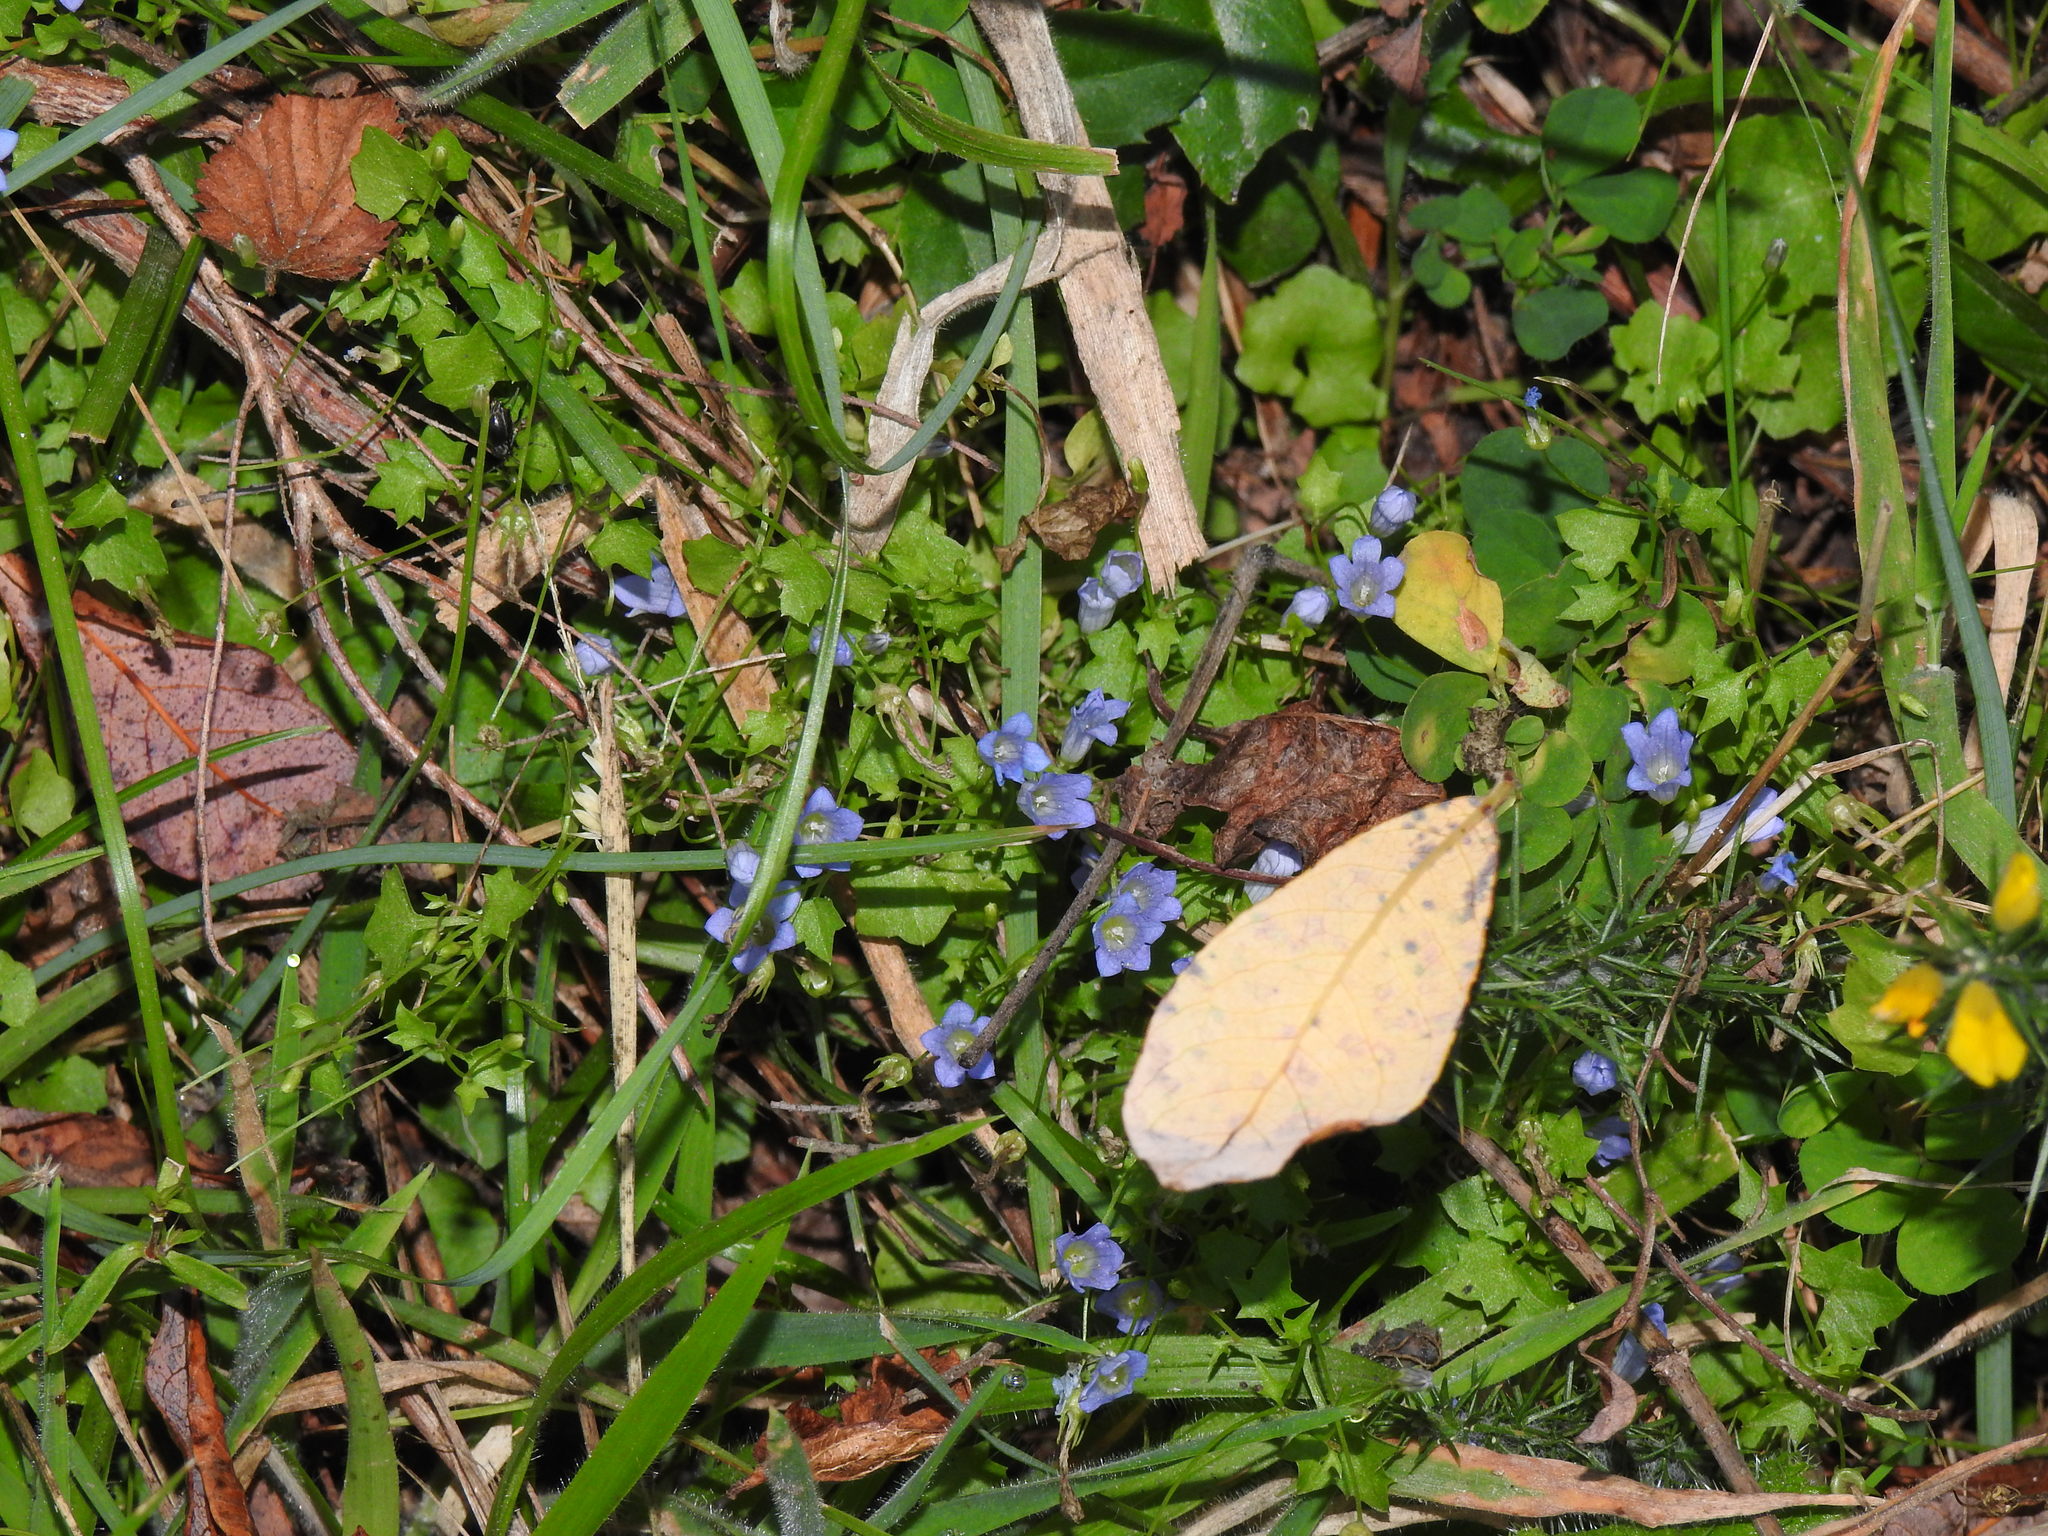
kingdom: Plantae
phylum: Tracheophyta
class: Magnoliopsida
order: Asterales
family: Campanulaceae
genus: Hesperocodon
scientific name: Hesperocodon hederaceus
